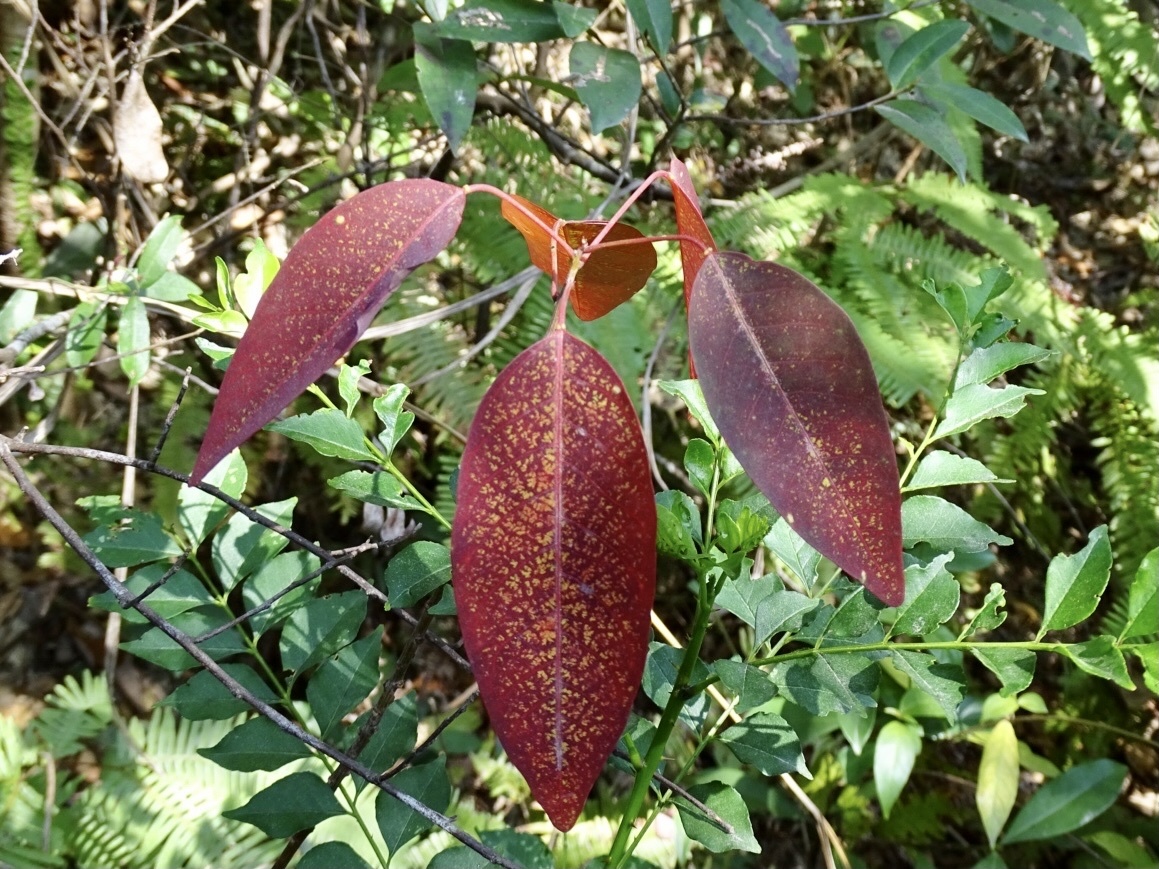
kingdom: Plantae
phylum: Tracheophyta
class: Magnoliopsida
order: Malpighiales
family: Euphorbiaceae
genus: Triadica
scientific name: Triadica cochinchinensis
